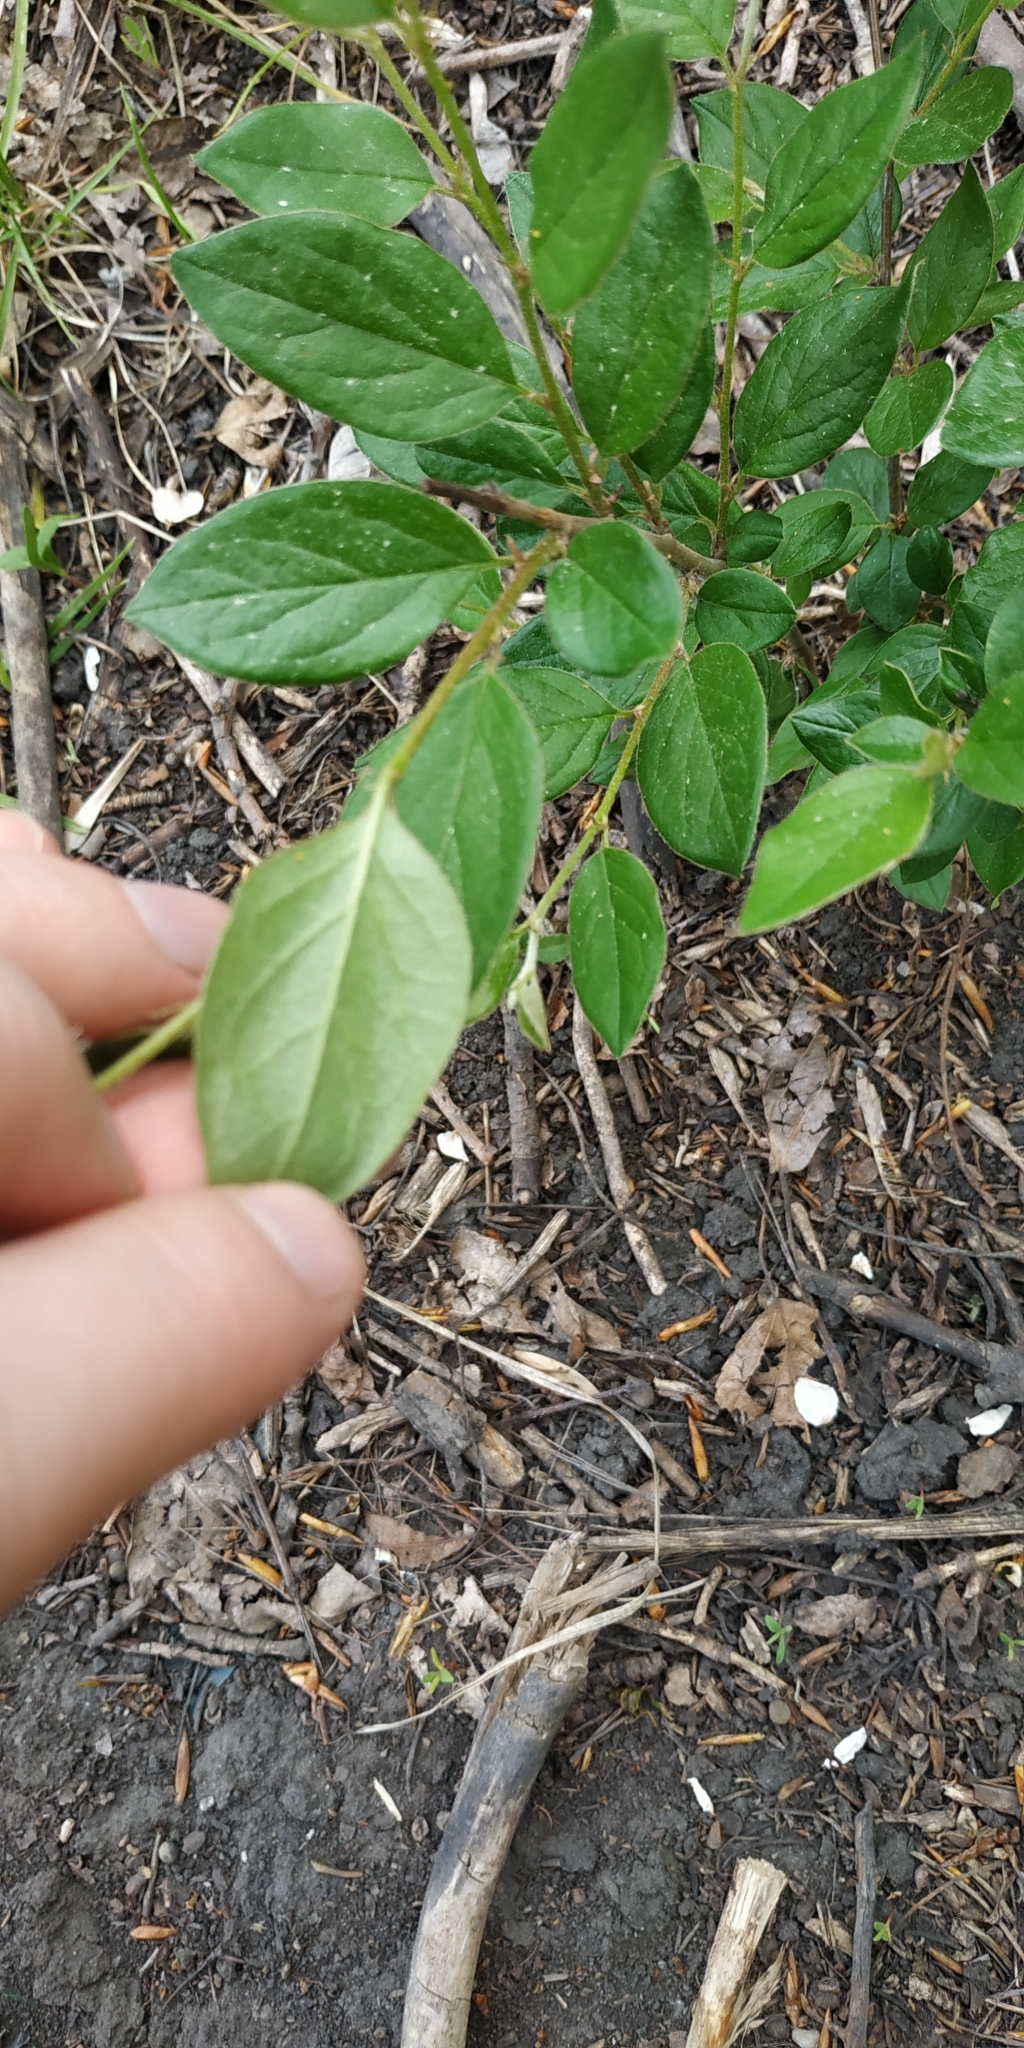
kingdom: Plantae
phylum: Tracheophyta
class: Magnoliopsida
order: Rosales
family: Rosaceae
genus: Cotoneaster
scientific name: Cotoneaster acutifolius
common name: Peking cotoneaster
